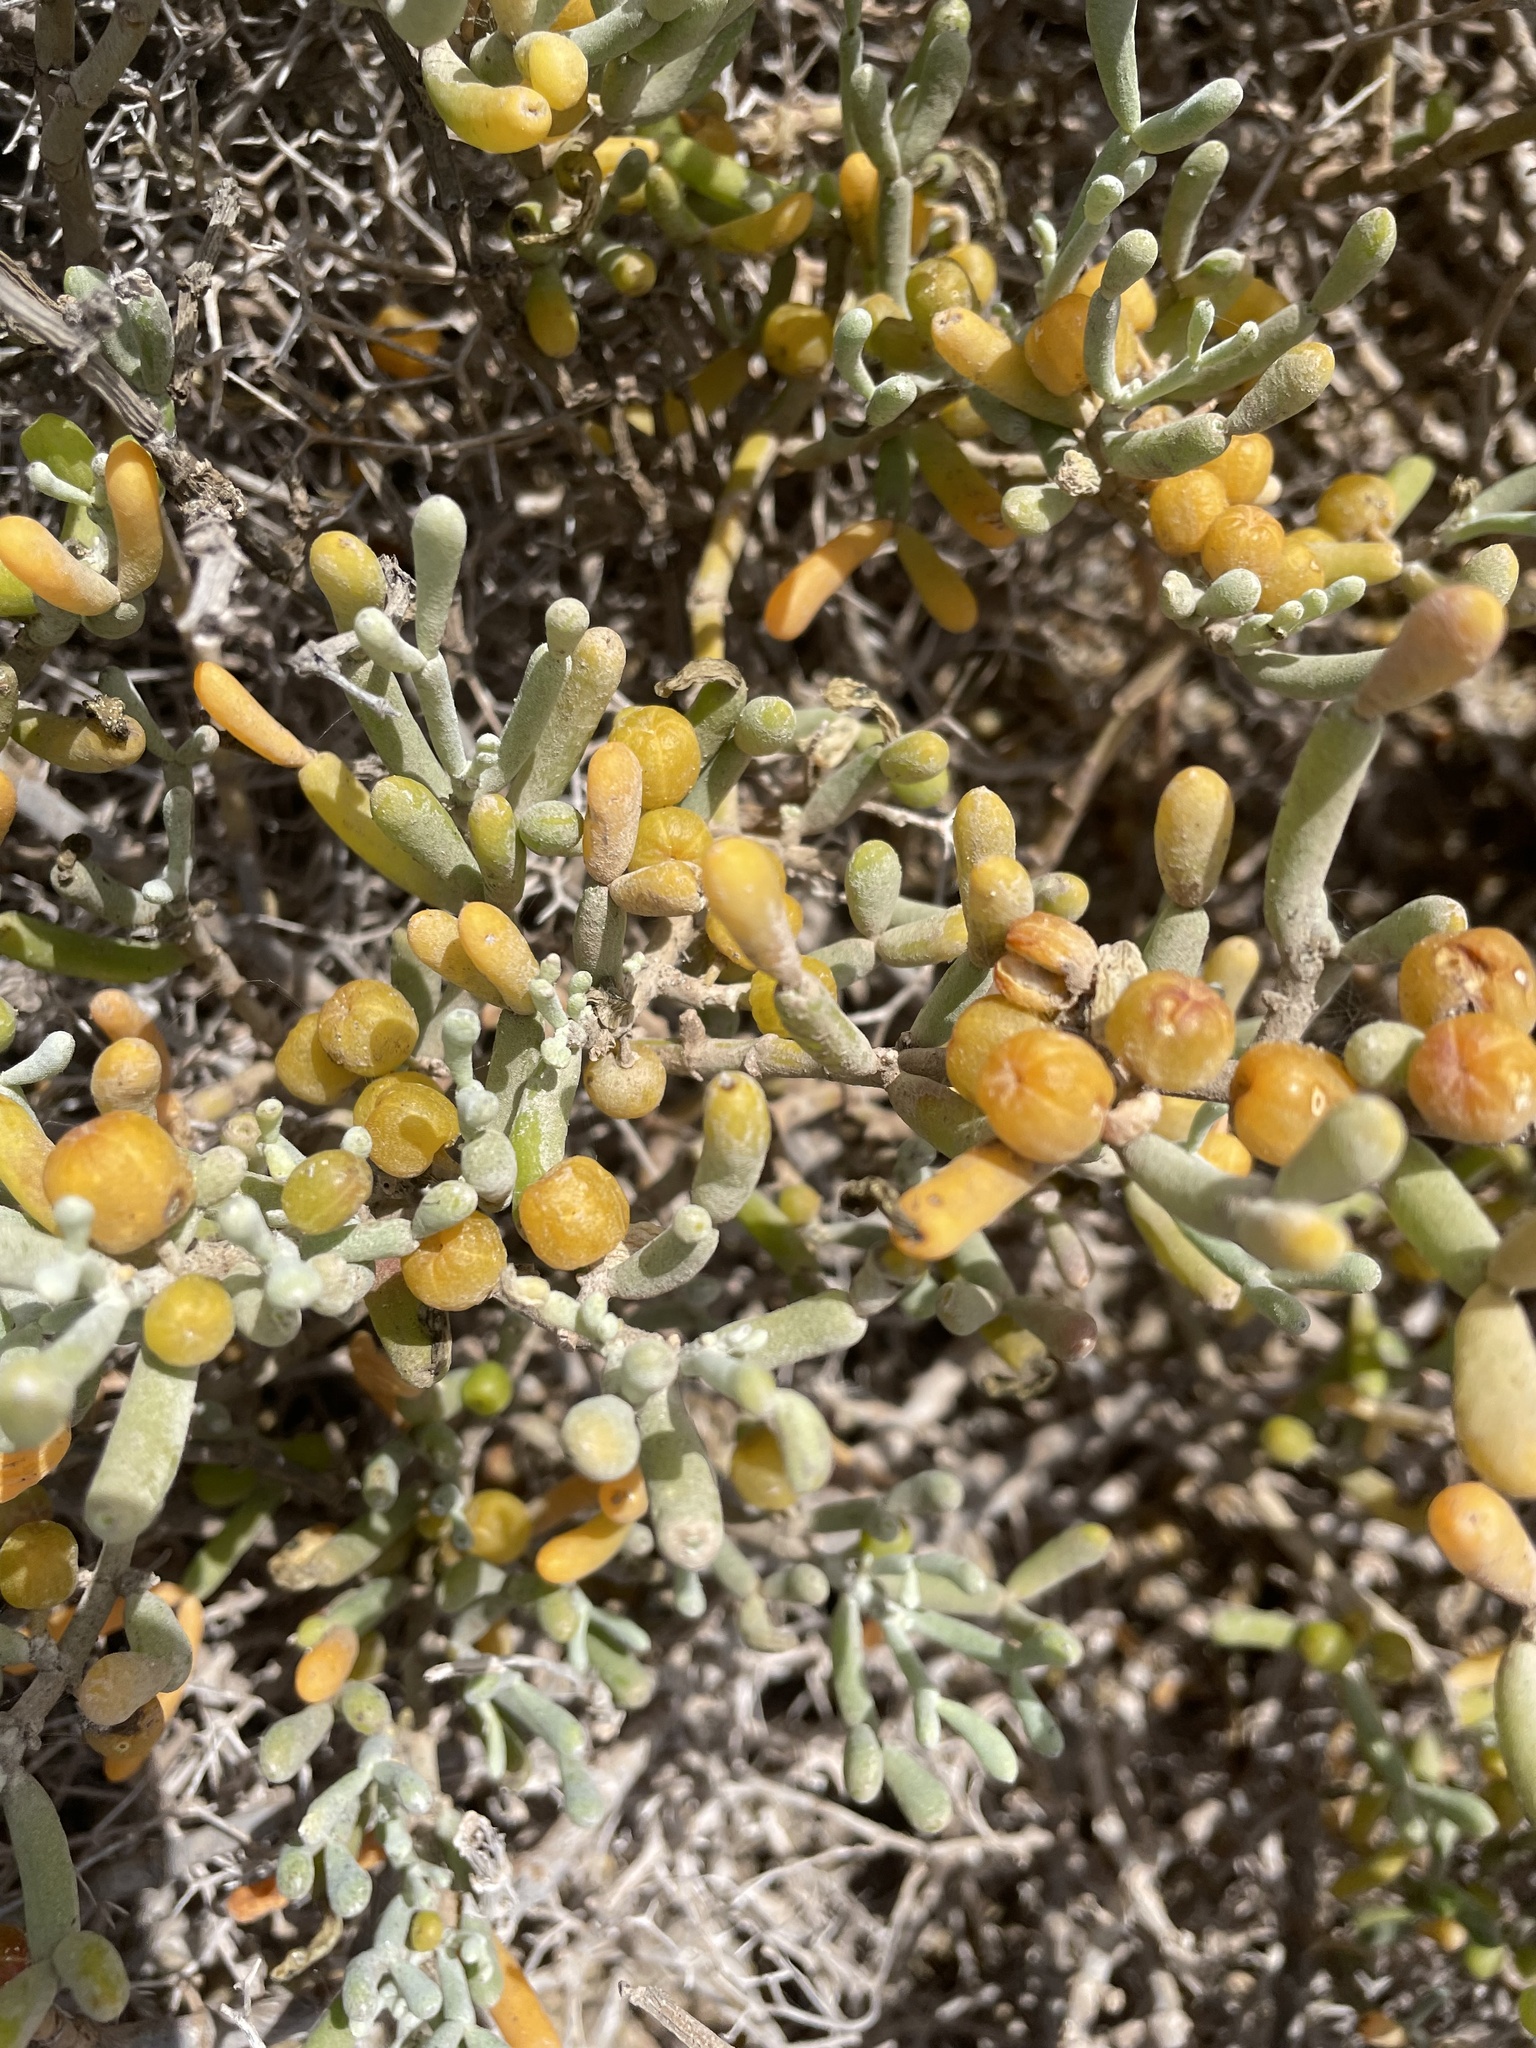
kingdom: Plantae
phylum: Tracheophyta
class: Magnoliopsida
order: Zygophyllales
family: Zygophyllaceae
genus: Tetraena
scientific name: Tetraena fontanesii
